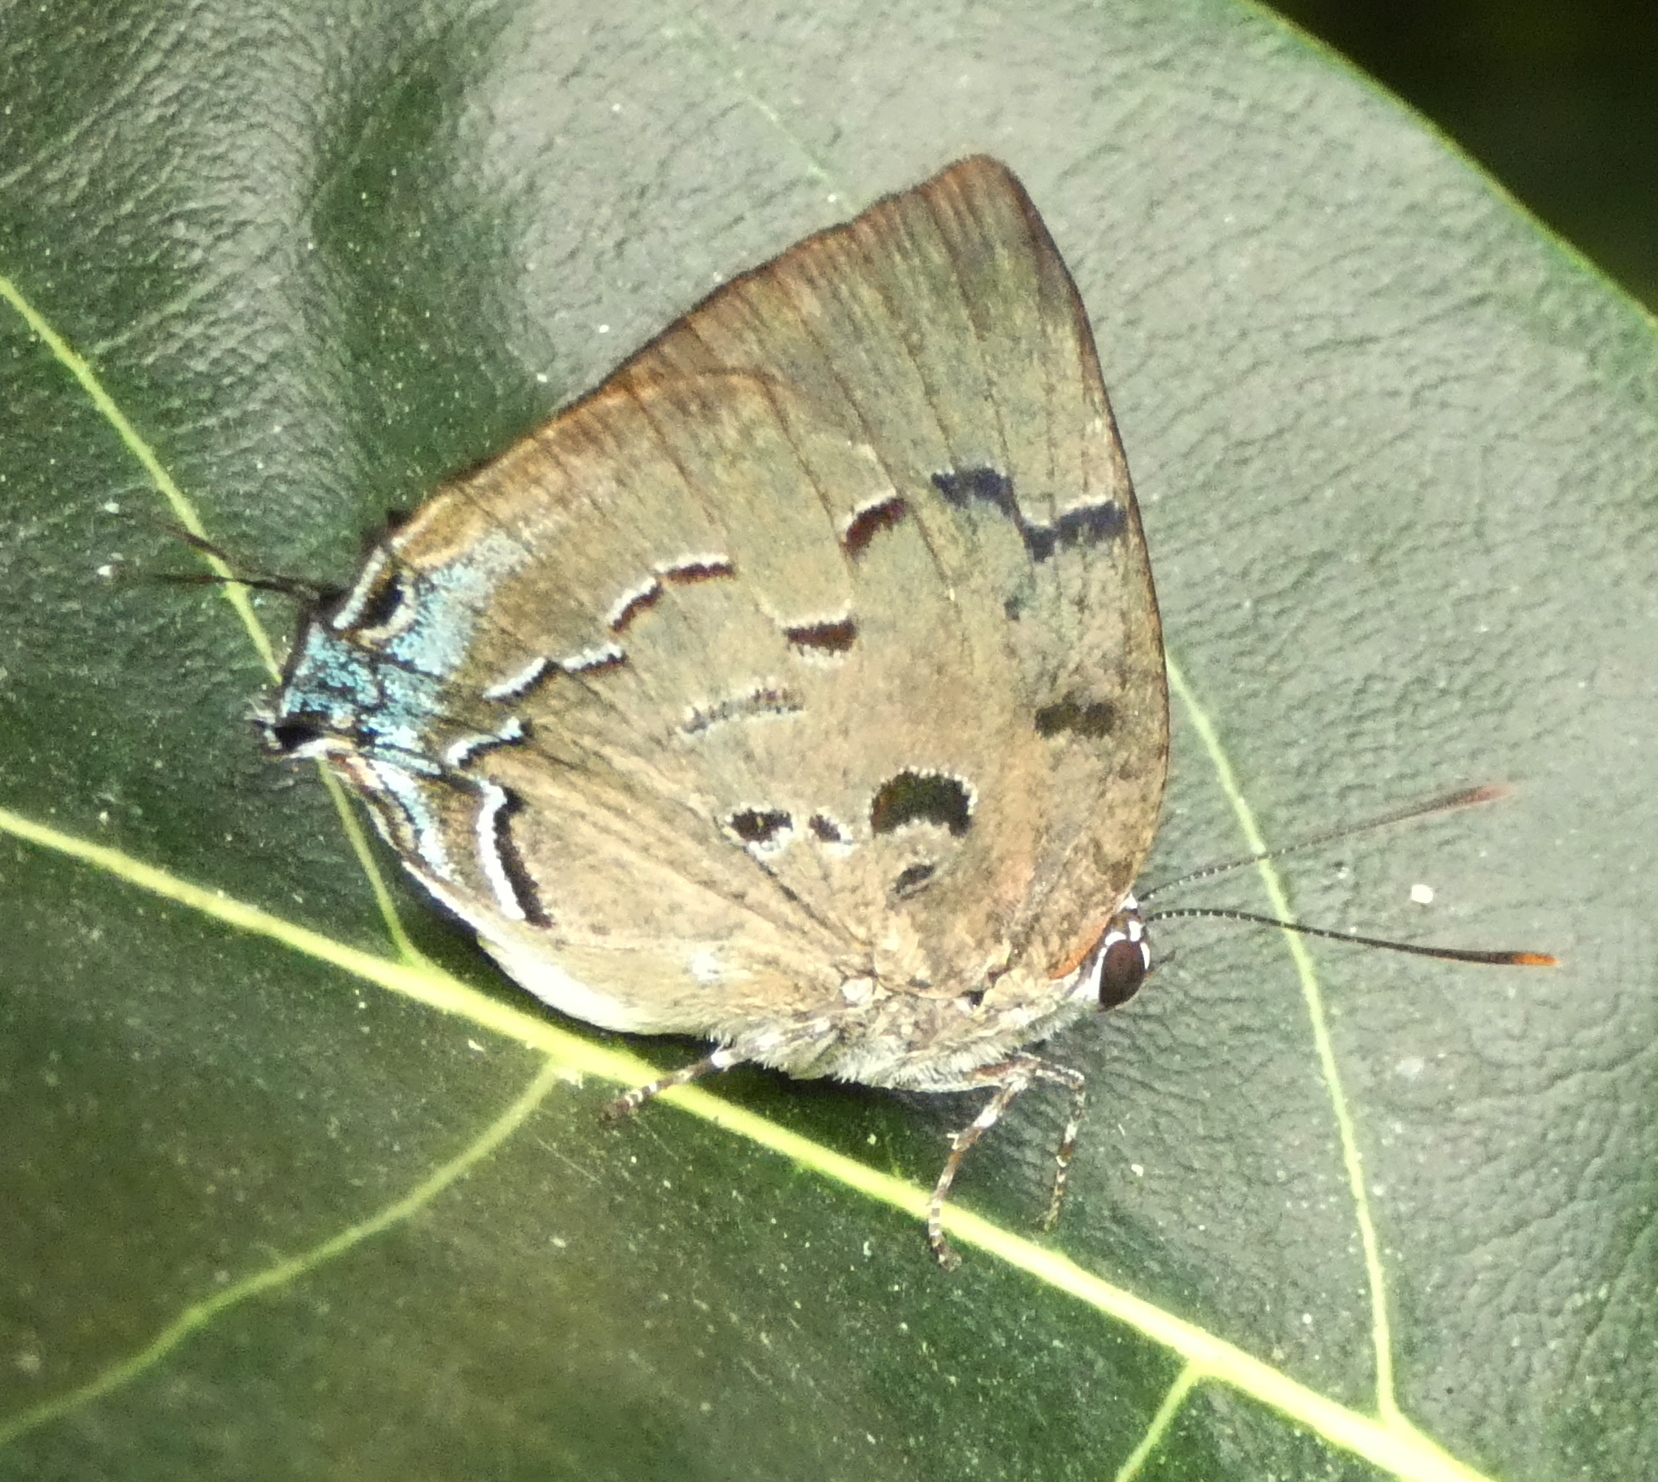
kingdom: Animalia
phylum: Arthropoda
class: Insecta
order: Lepidoptera
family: Lycaenidae
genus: Panthiades
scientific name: Panthiades hebraeus
